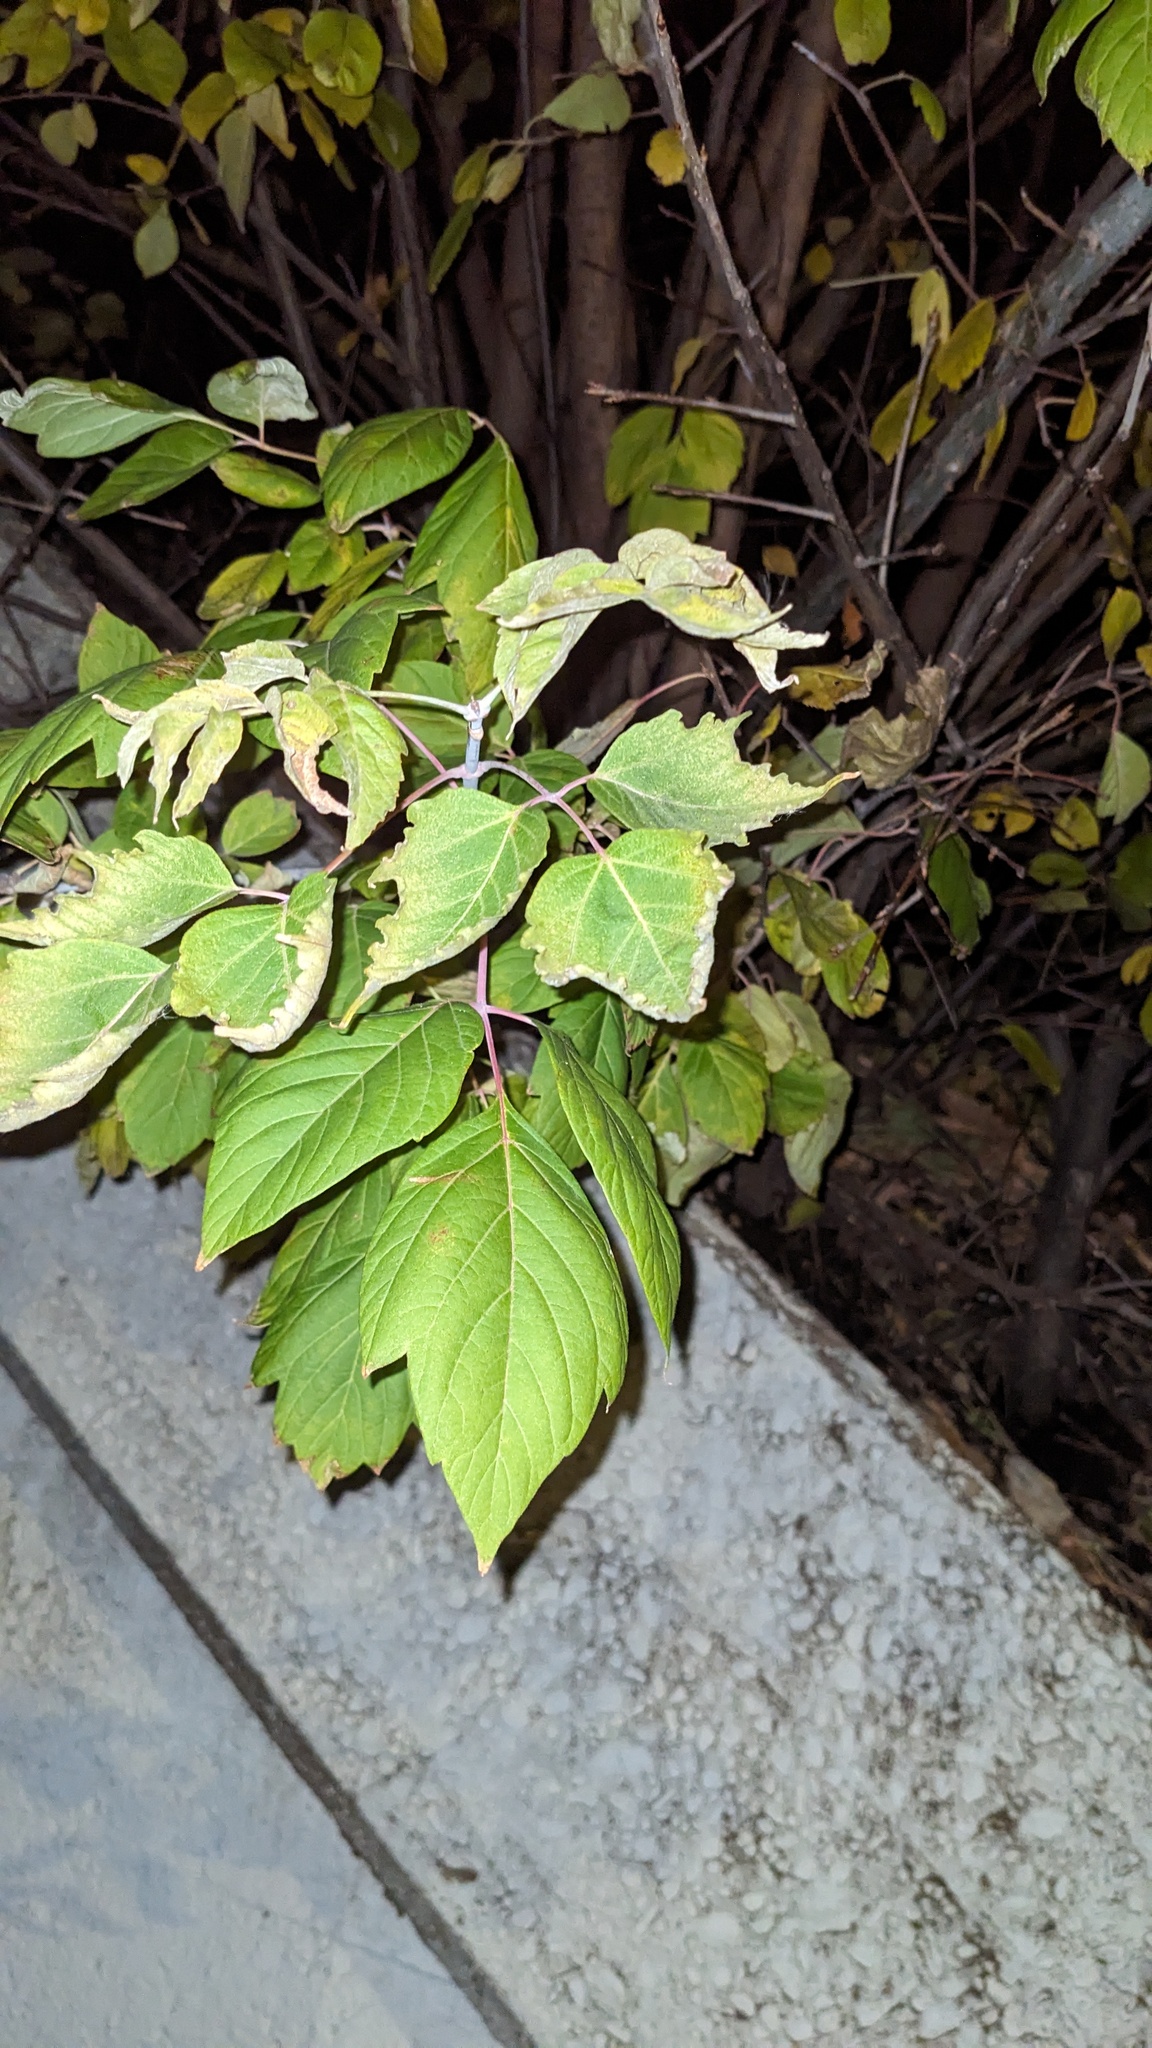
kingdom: Plantae
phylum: Tracheophyta
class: Magnoliopsida
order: Sapindales
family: Sapindaceae
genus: Acer
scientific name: Acer negundo
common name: Ashleaf maple
